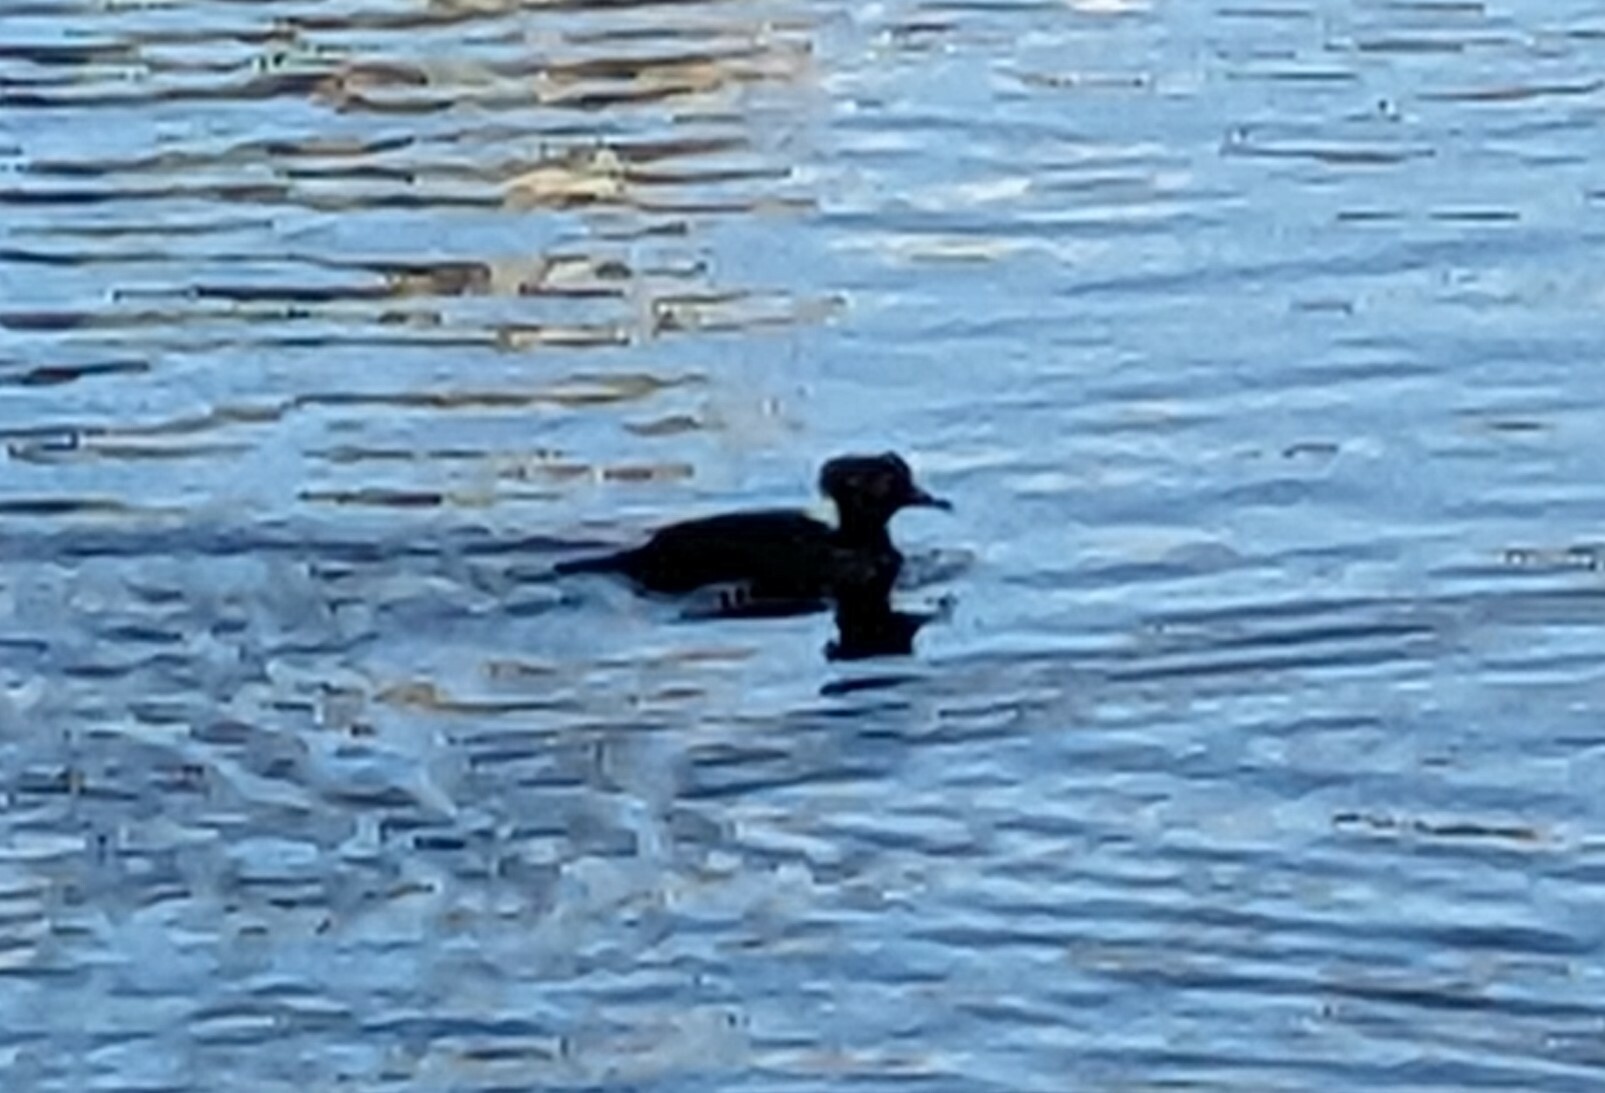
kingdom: Animalia
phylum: Chordata
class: Aves
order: Anseriformes
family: Anatidae
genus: Lophodytes
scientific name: Lophodytes cucullatus
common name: Hooded merganser
